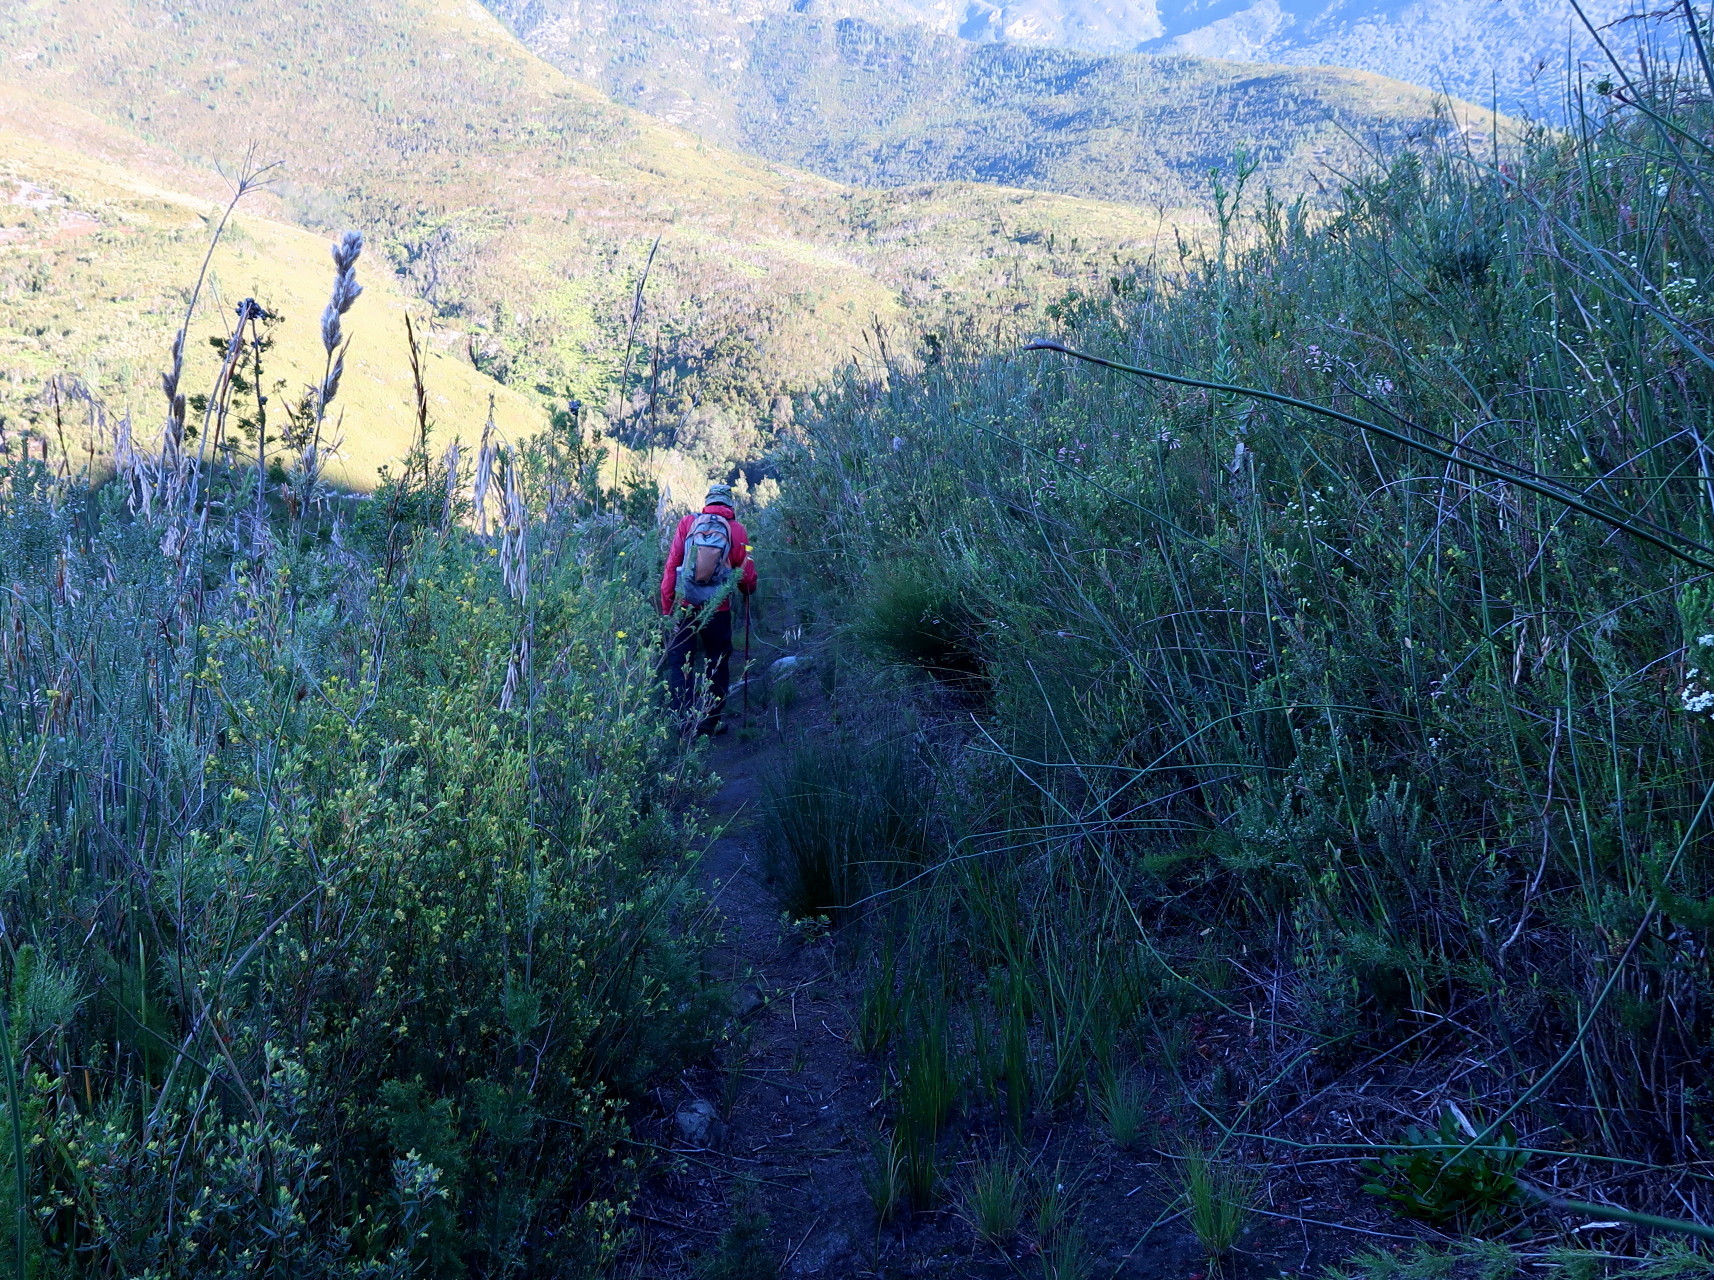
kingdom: Plantae
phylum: Tracheophyta
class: Magnoliopsida
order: Myrtales
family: Penaeaceae
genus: Penaea
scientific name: Penaea acutifolia
